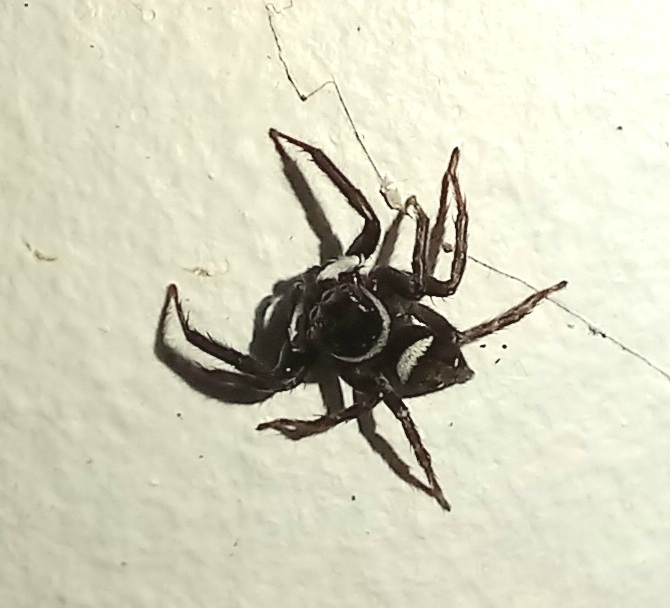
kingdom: Animalia
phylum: Arthropoda
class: Arachnida
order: Araneae
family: Salticidae
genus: Hasarius
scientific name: Hasarius adansoni
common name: Jumping spider
